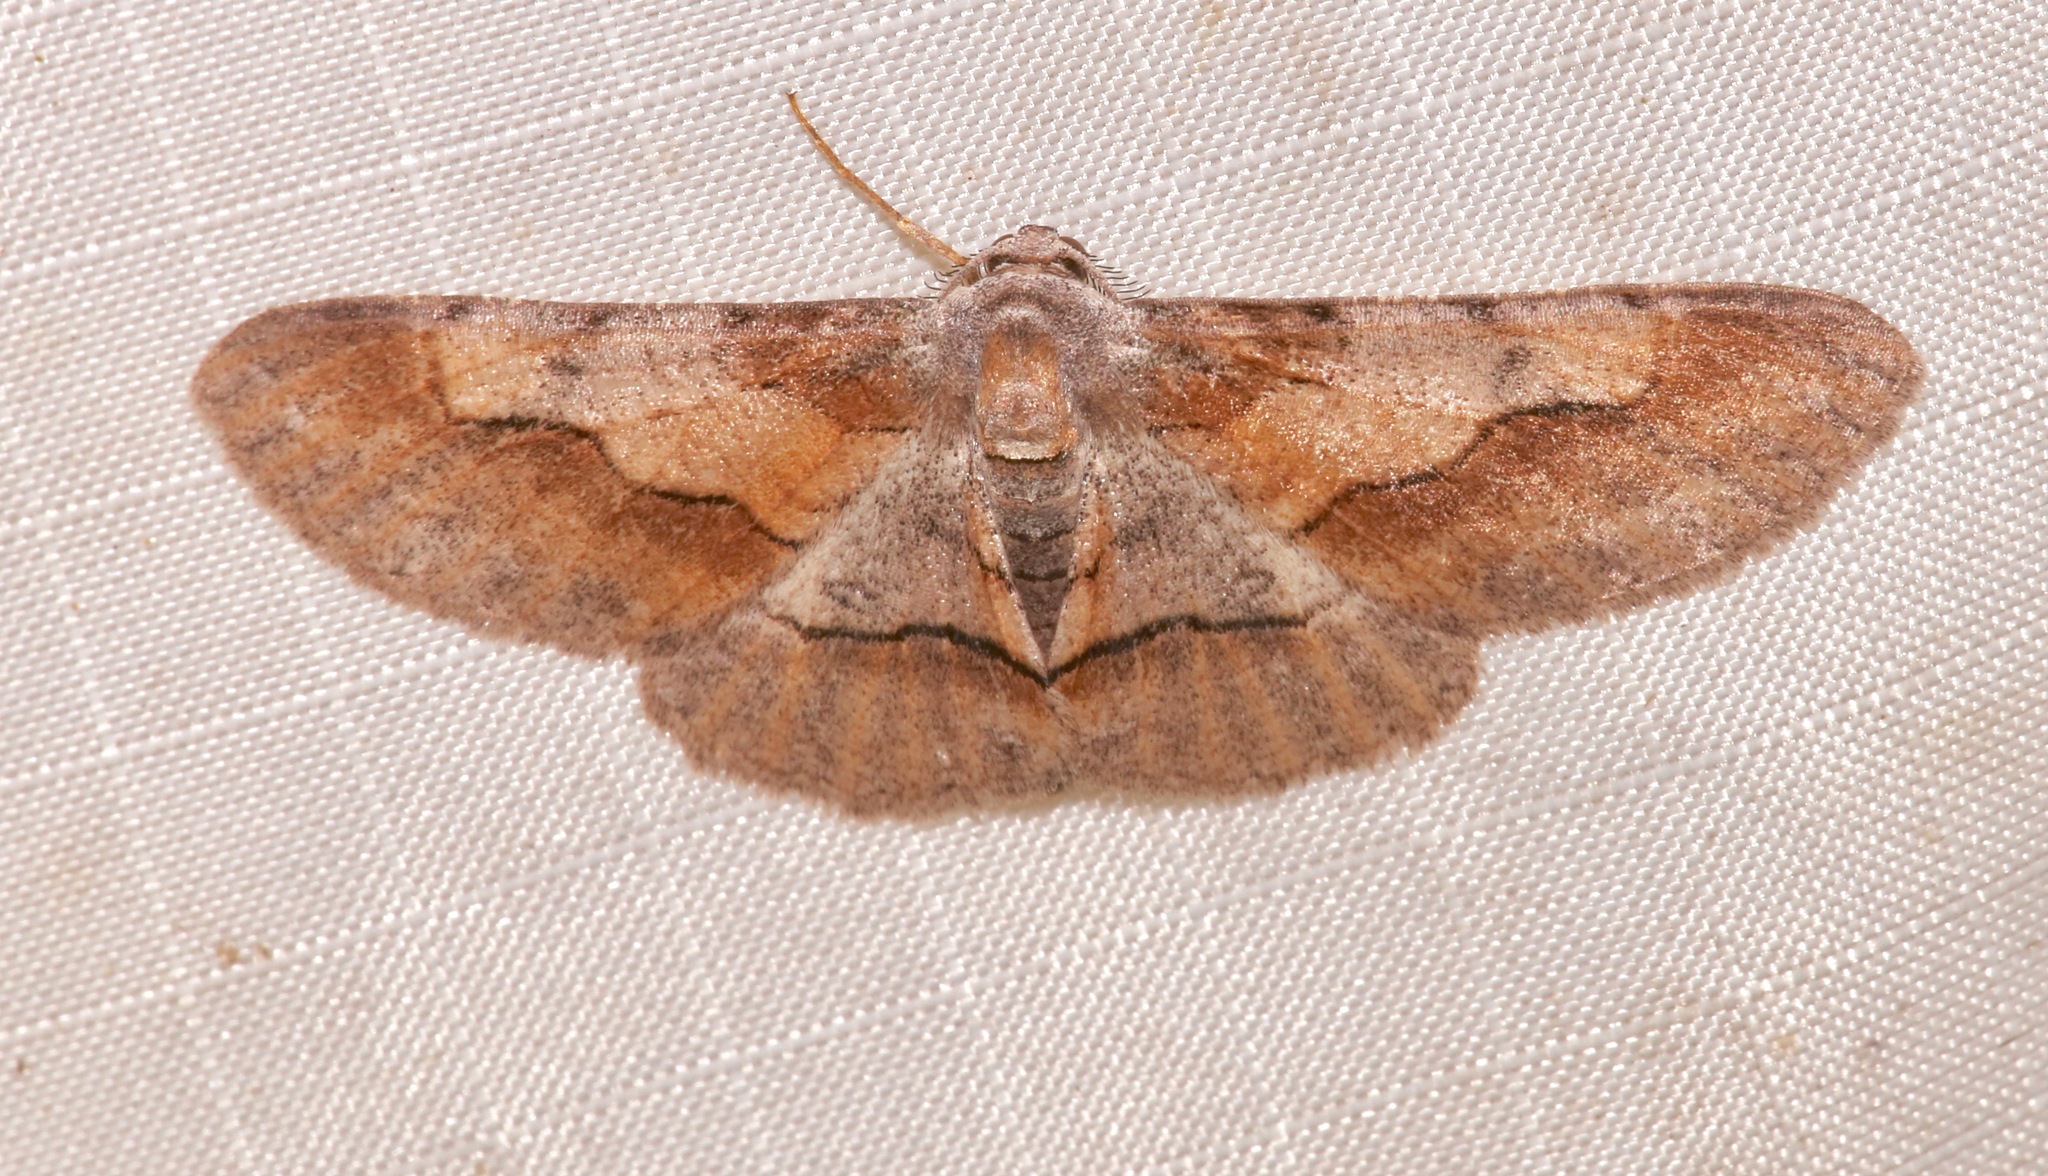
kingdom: Animalia
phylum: Arthropoda
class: Insecta
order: Lepidoptera
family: Geometridae
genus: Stenoporpia
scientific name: Stenoporpia mcdunnoughi
